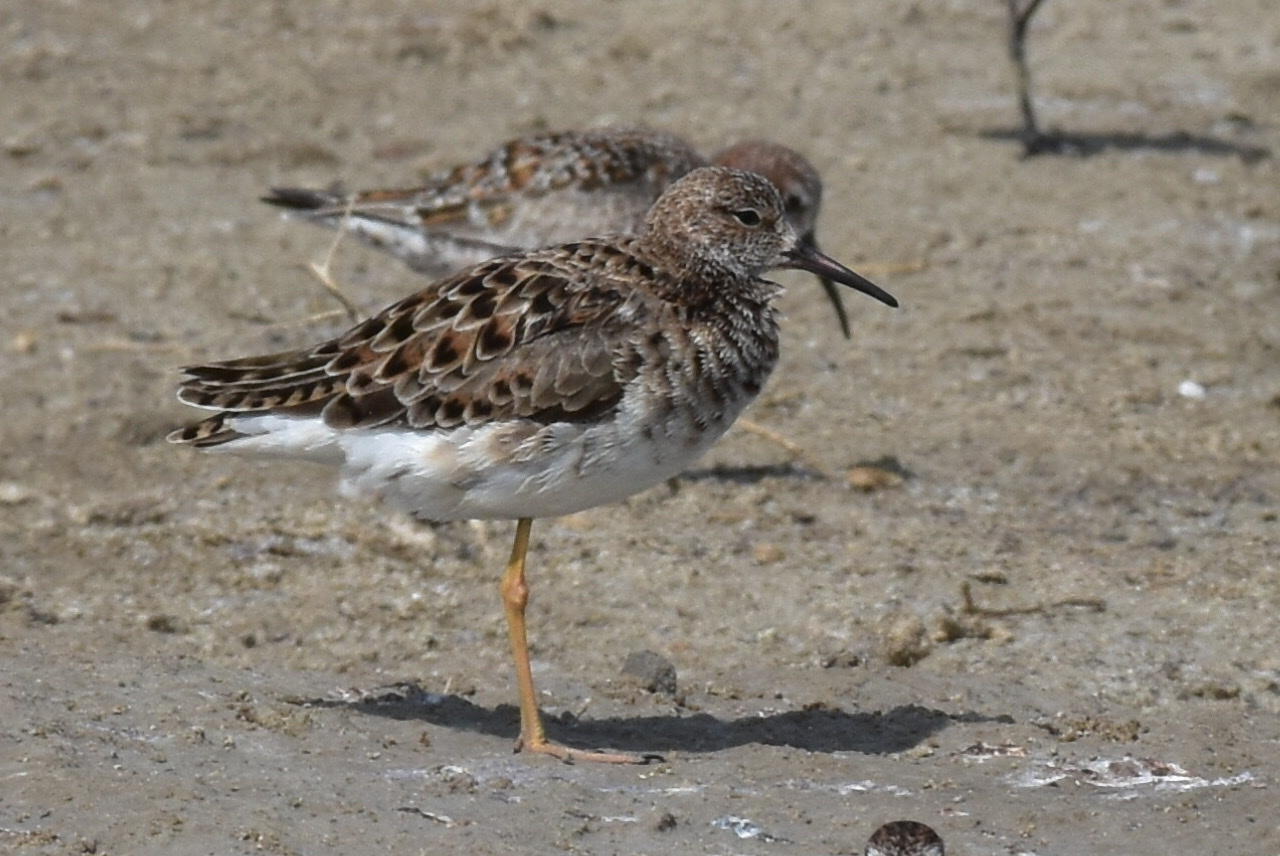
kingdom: Animalia
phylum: Chordata
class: Aves
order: Charadriiformes
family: Scolopacidae
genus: Calidris
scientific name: Calidris pugnax
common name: Ruff
